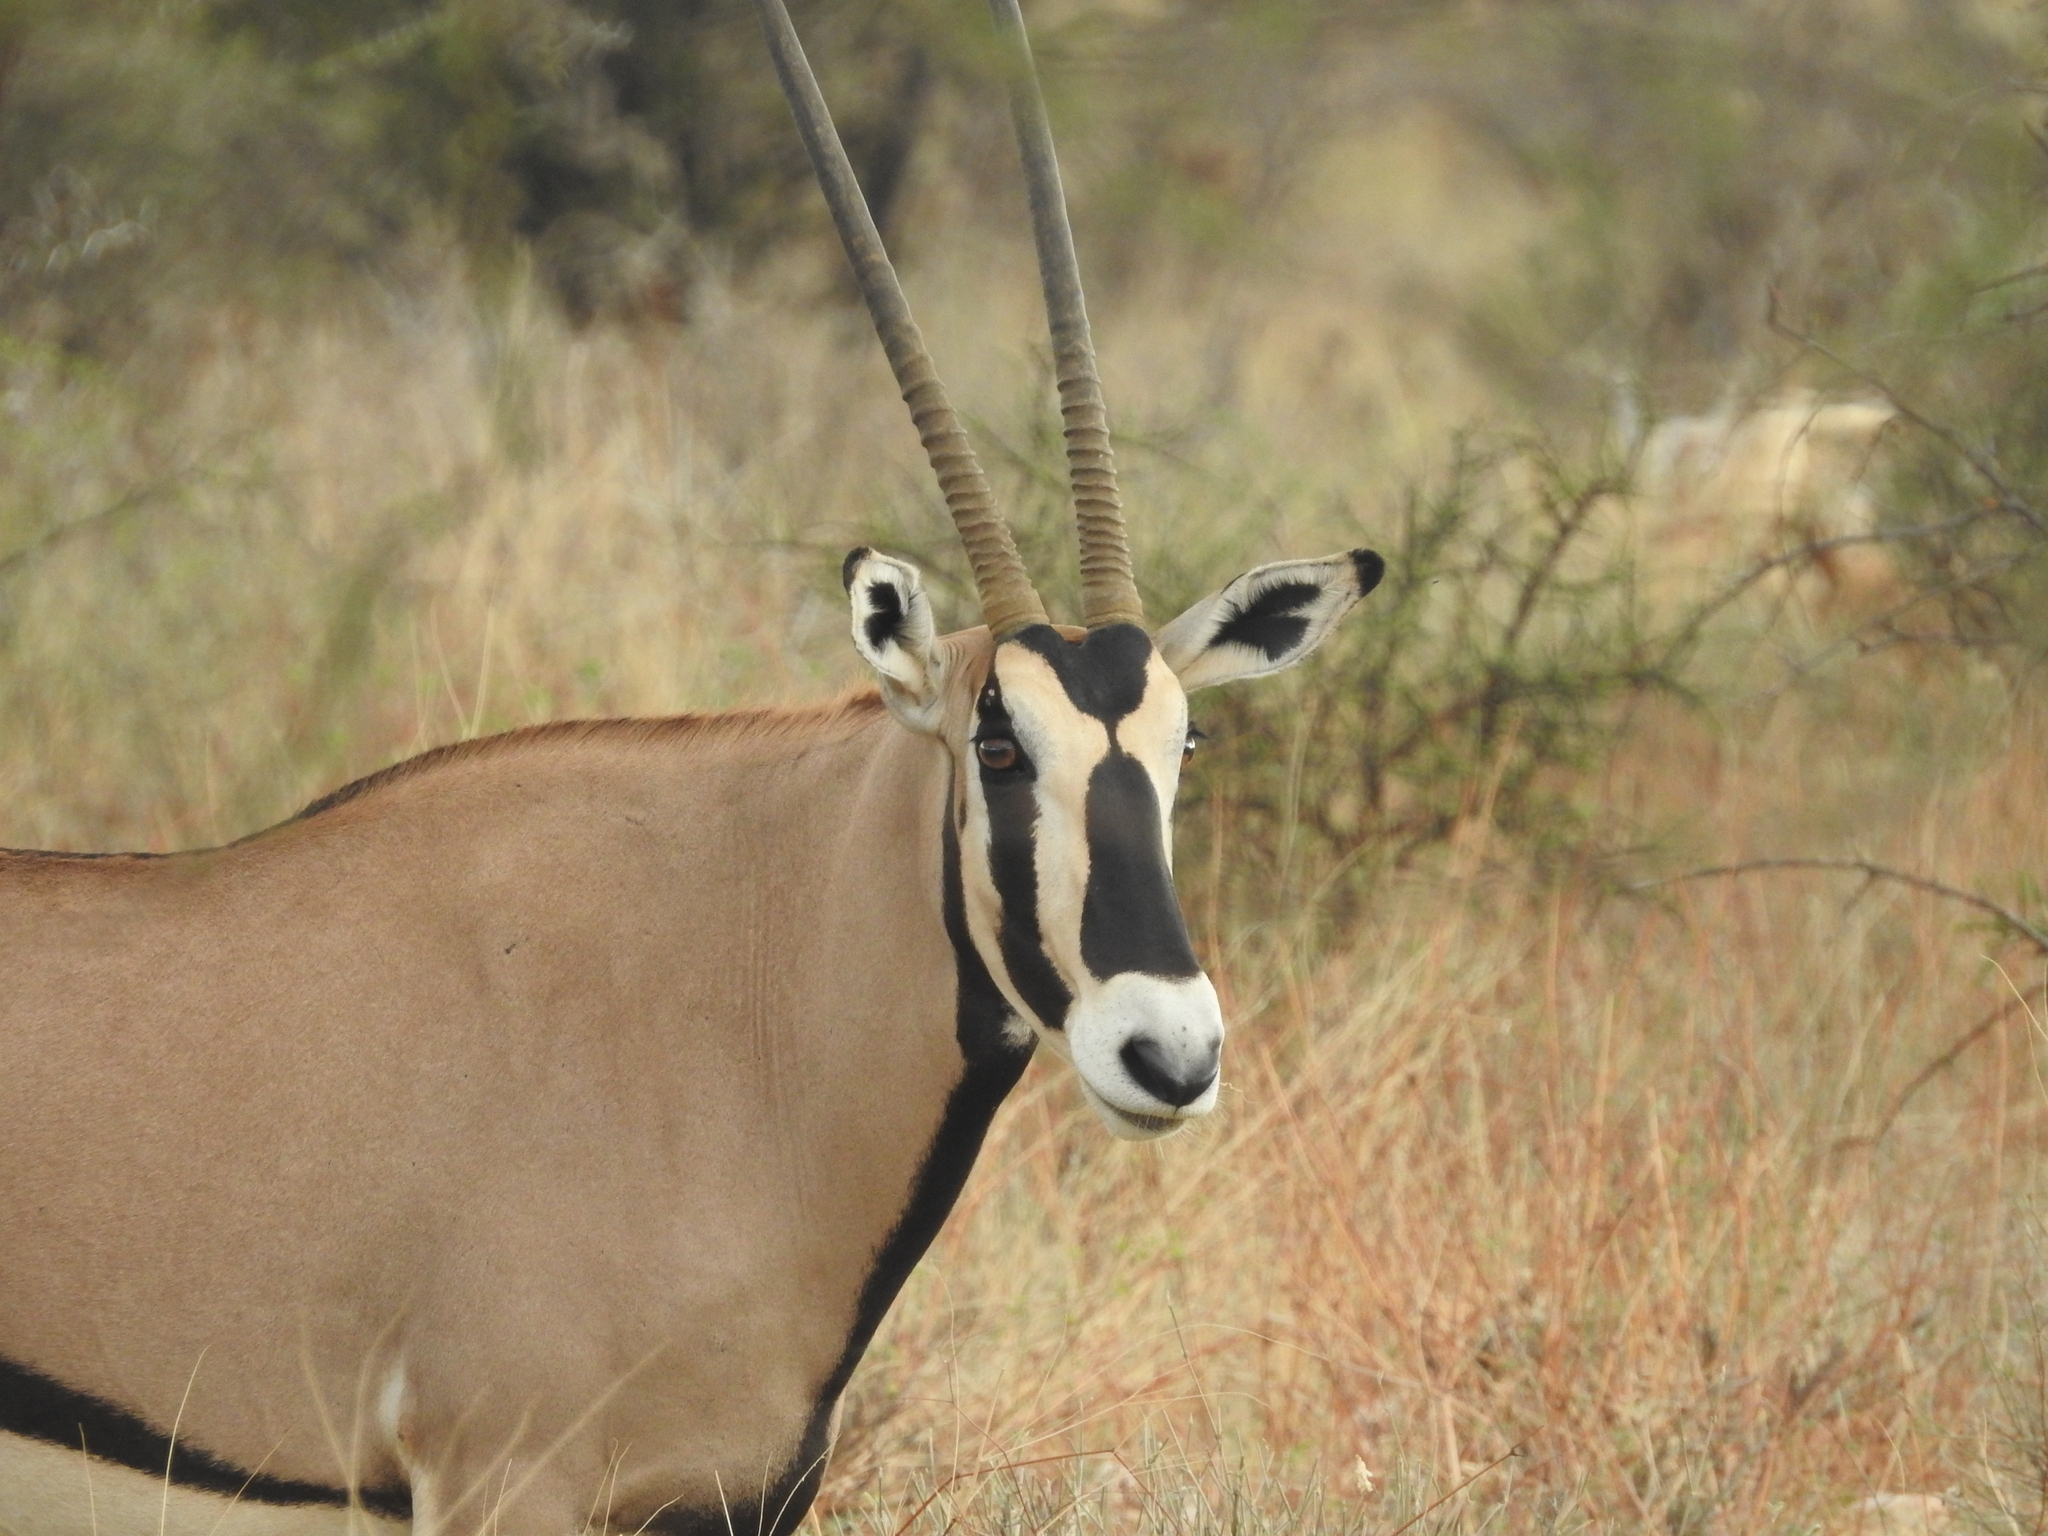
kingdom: Animalia
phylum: Chordata
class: Mammalia
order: Artiodactyla
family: Bovidae
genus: Oryx
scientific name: Oryx beisa
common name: Beisa
